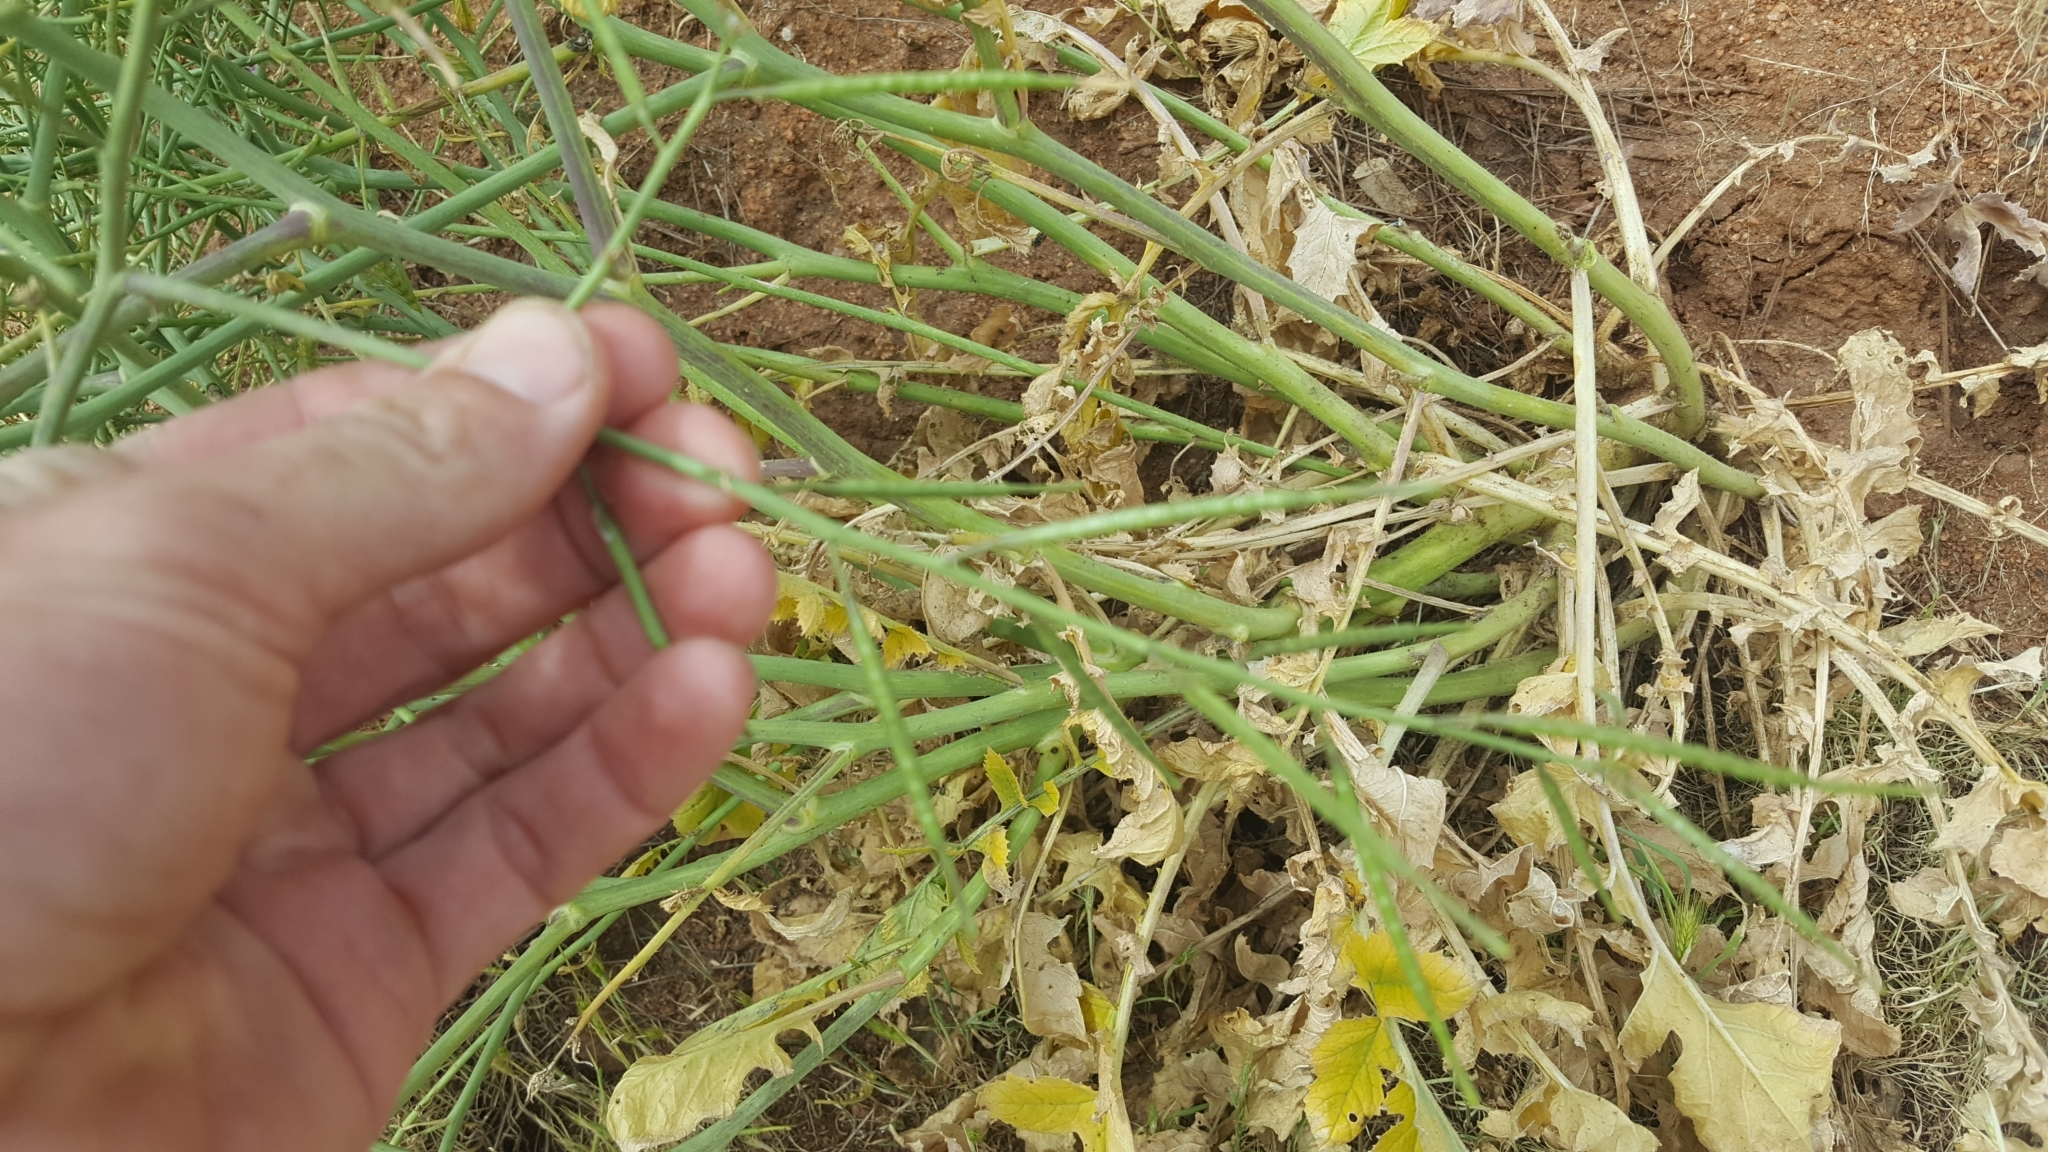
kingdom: Plantae
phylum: Tracheophyta
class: Magnoliopsida
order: Brassicales
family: Brassicaceae
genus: Brassica
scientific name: Brassica tournefortii
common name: Pale cabbage
